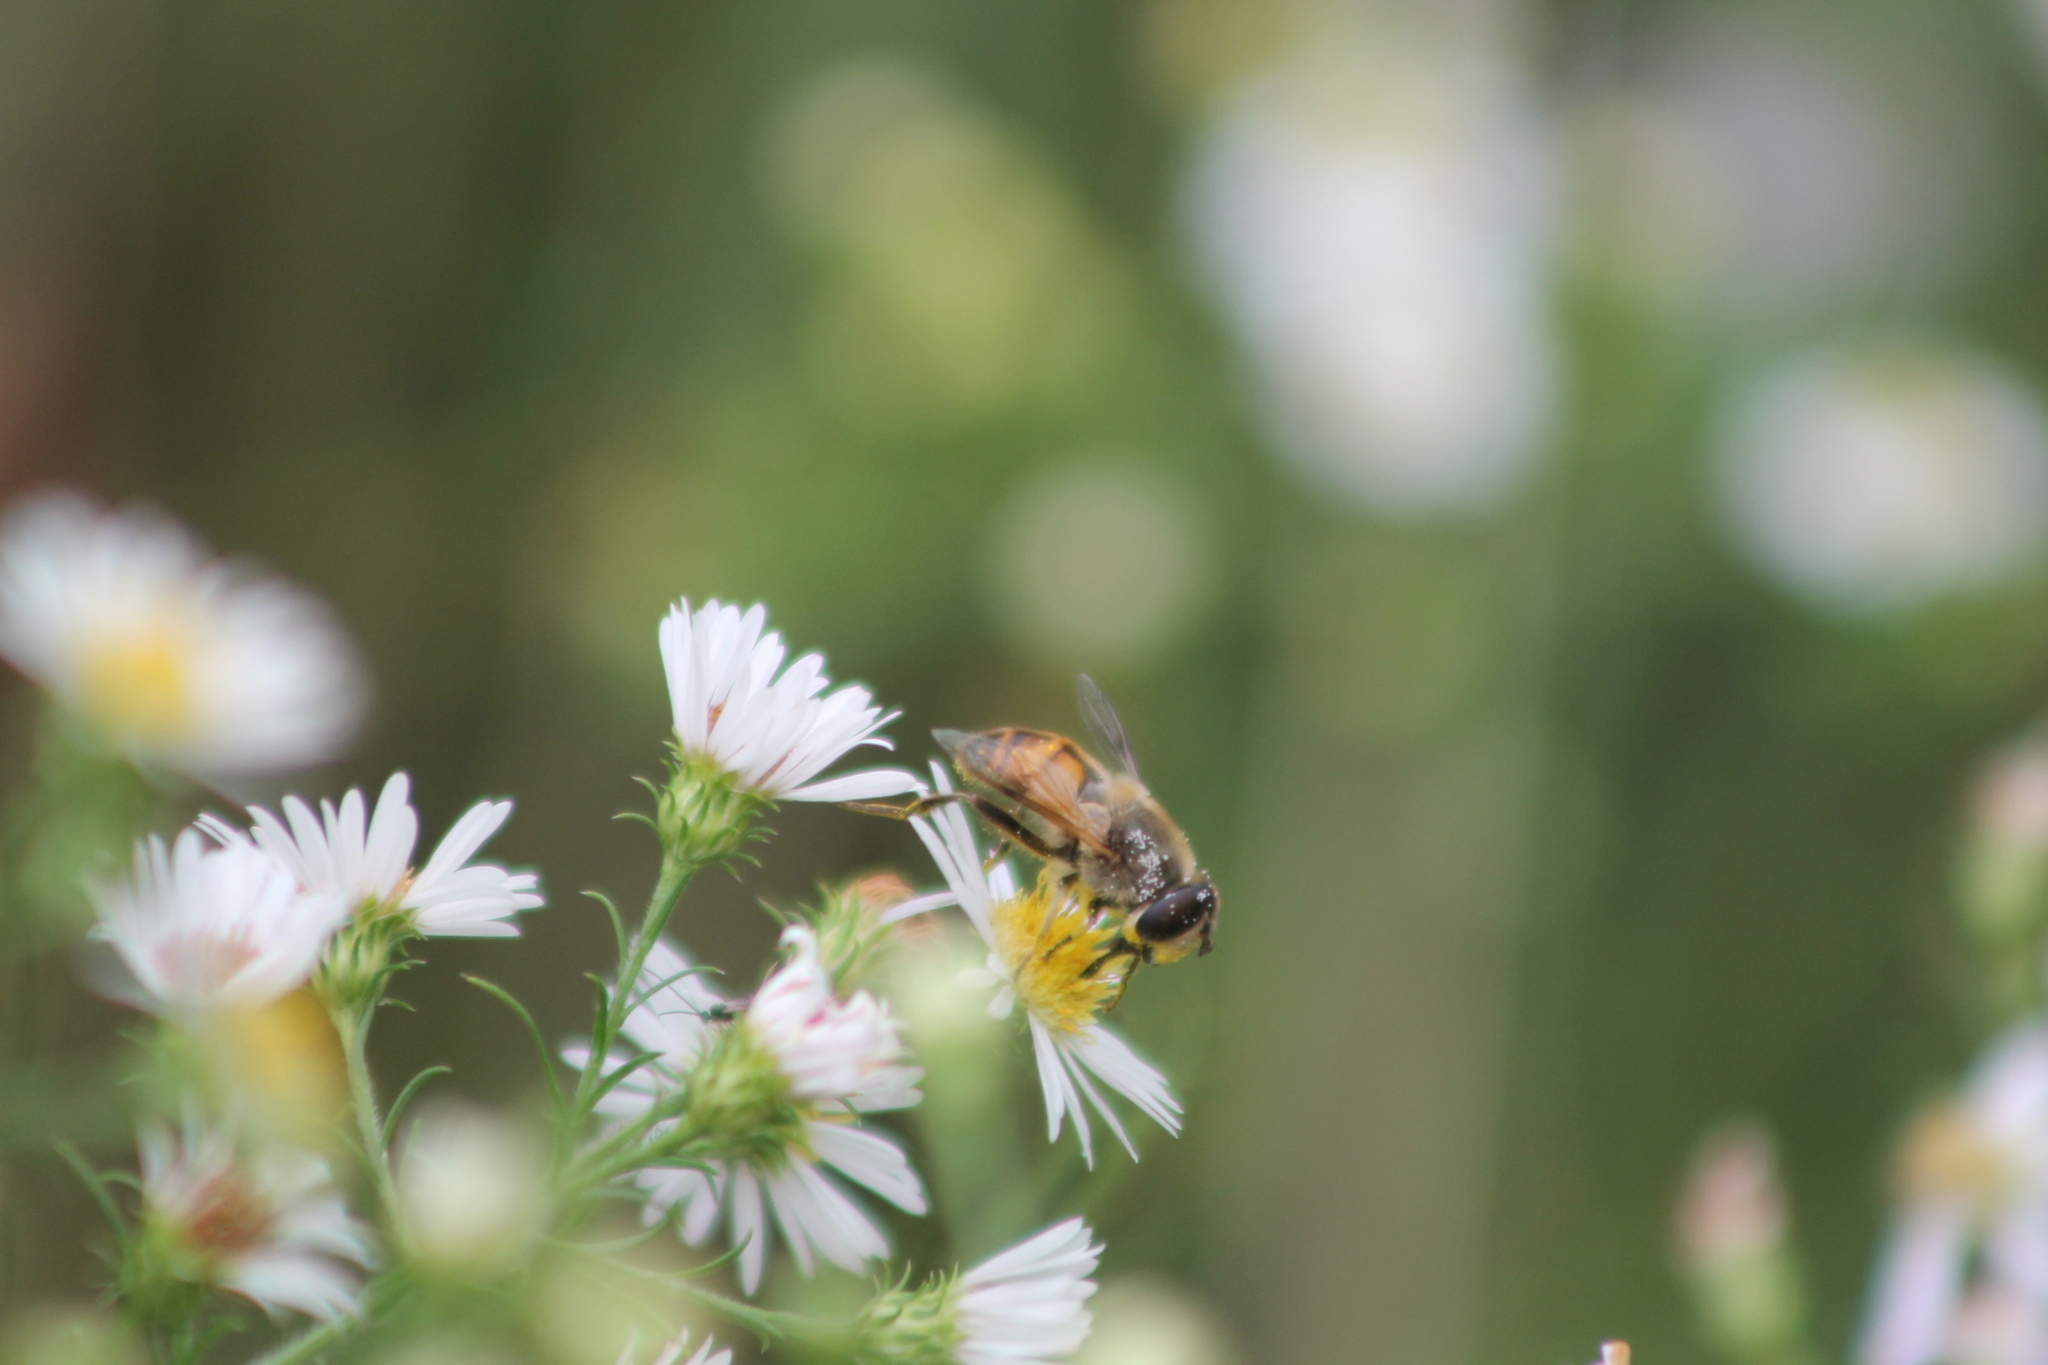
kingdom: Animalia
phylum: Arthropoda
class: Insecta
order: Diptera
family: Syrphidae
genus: Eristalis
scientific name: Eristalis tenax
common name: Drone fly
